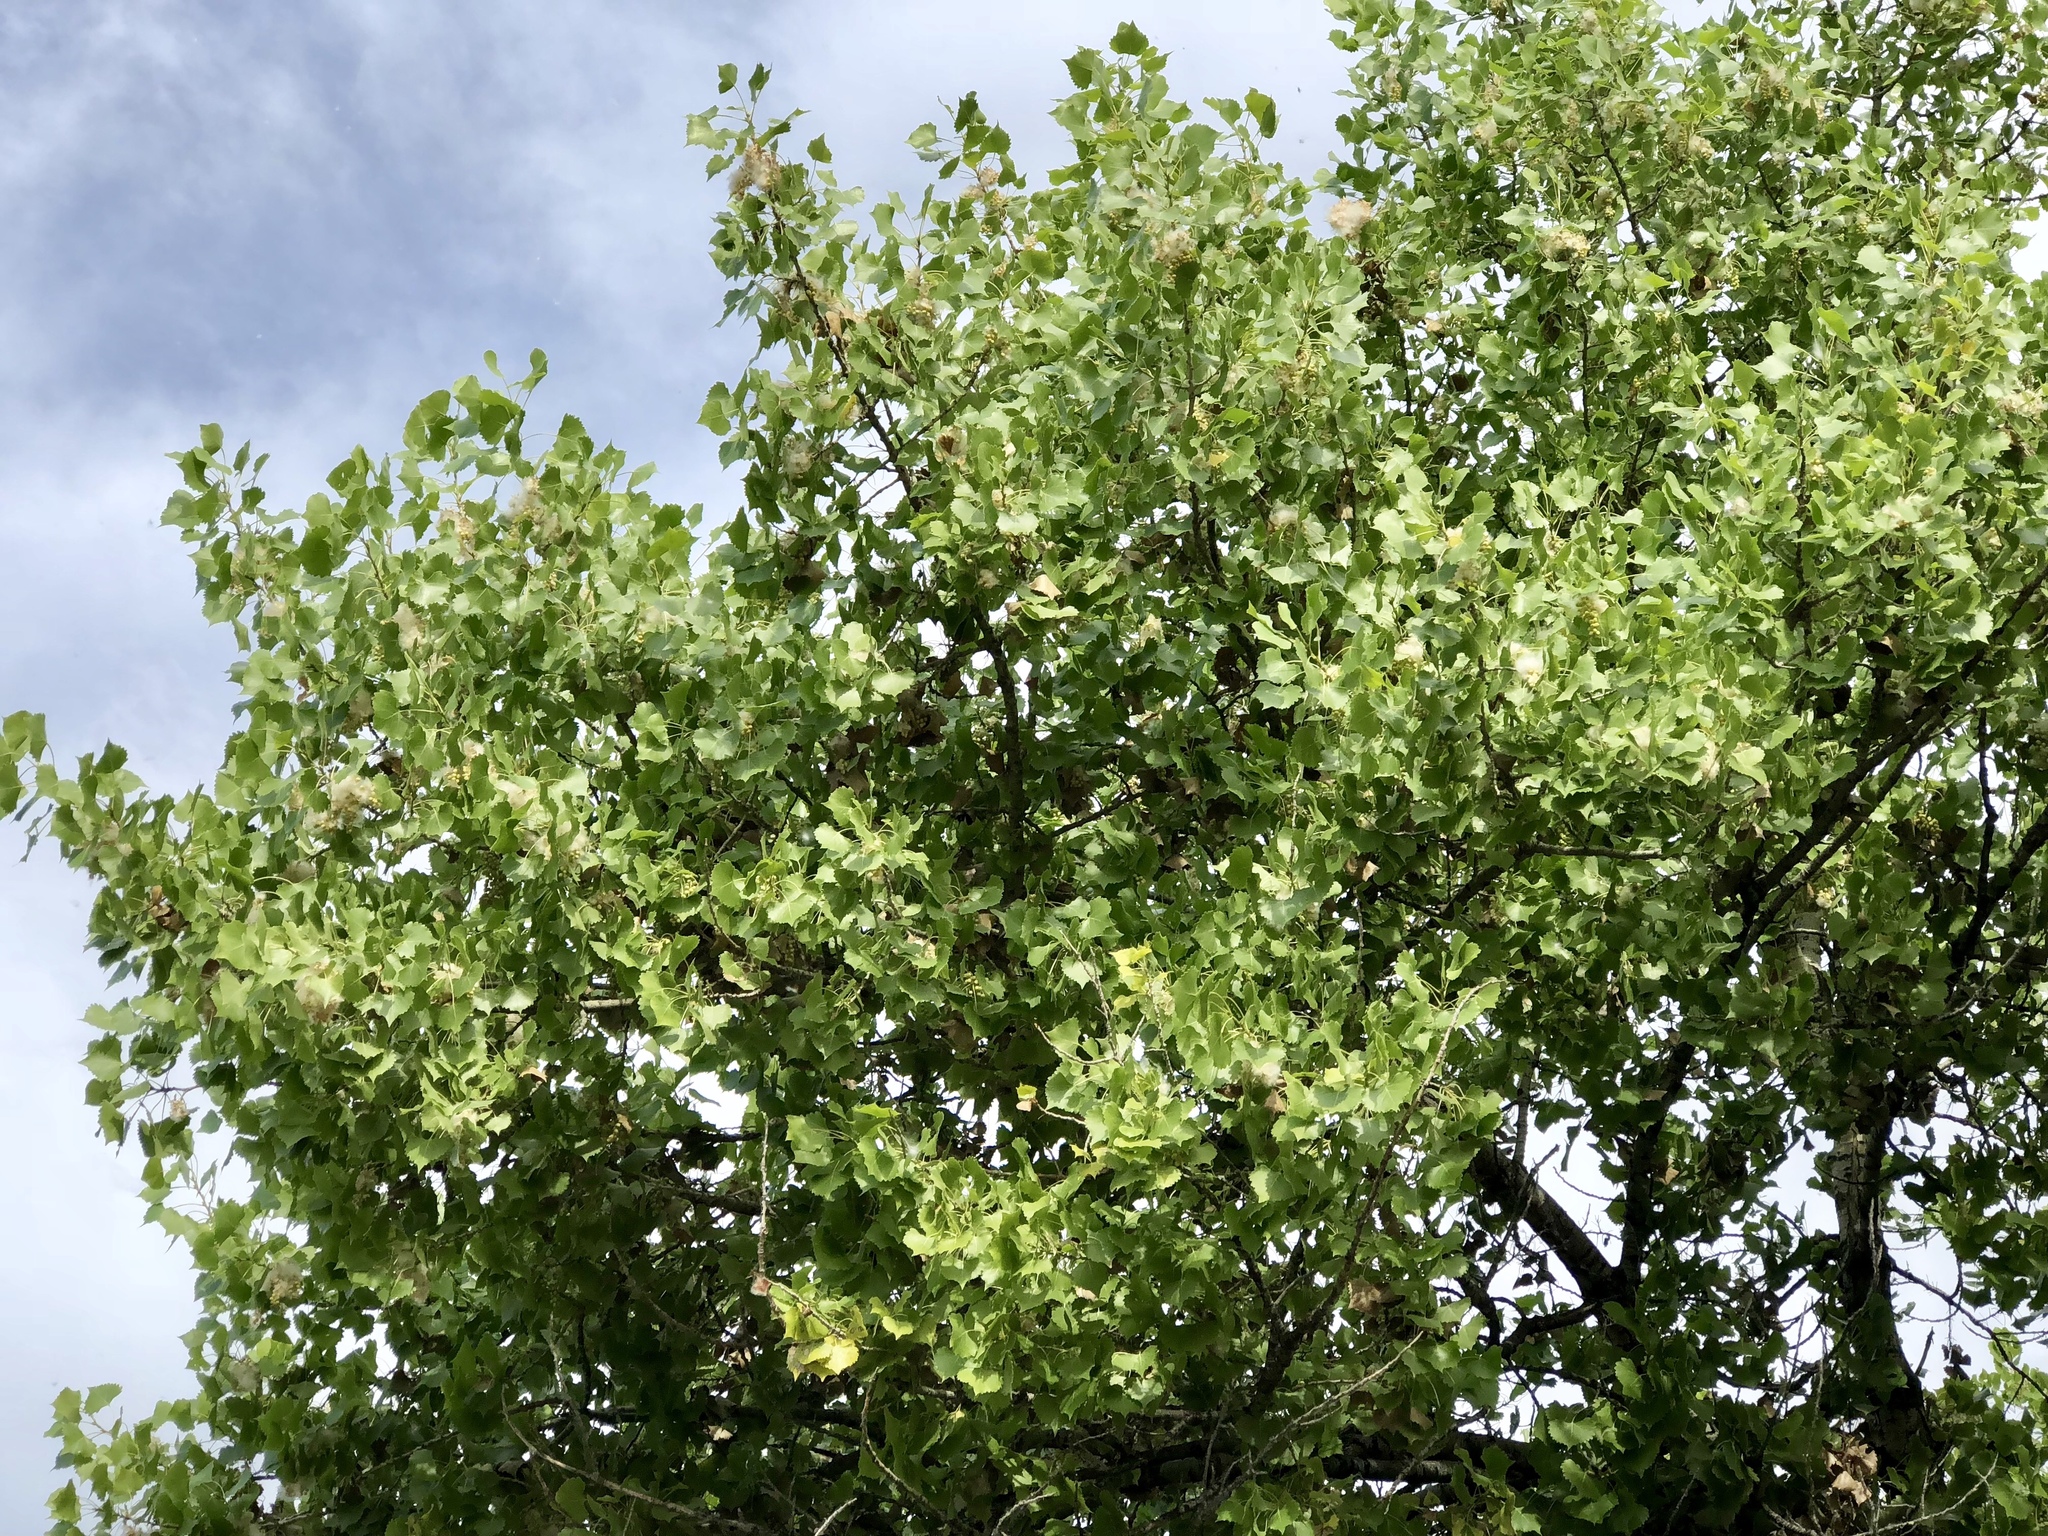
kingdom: Plantae
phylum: Tracheophyta
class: Magnoliopsida
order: Malpighiales
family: Salicaceae
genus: Populus
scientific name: Populus fremontii
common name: Fremont's cottonwood
